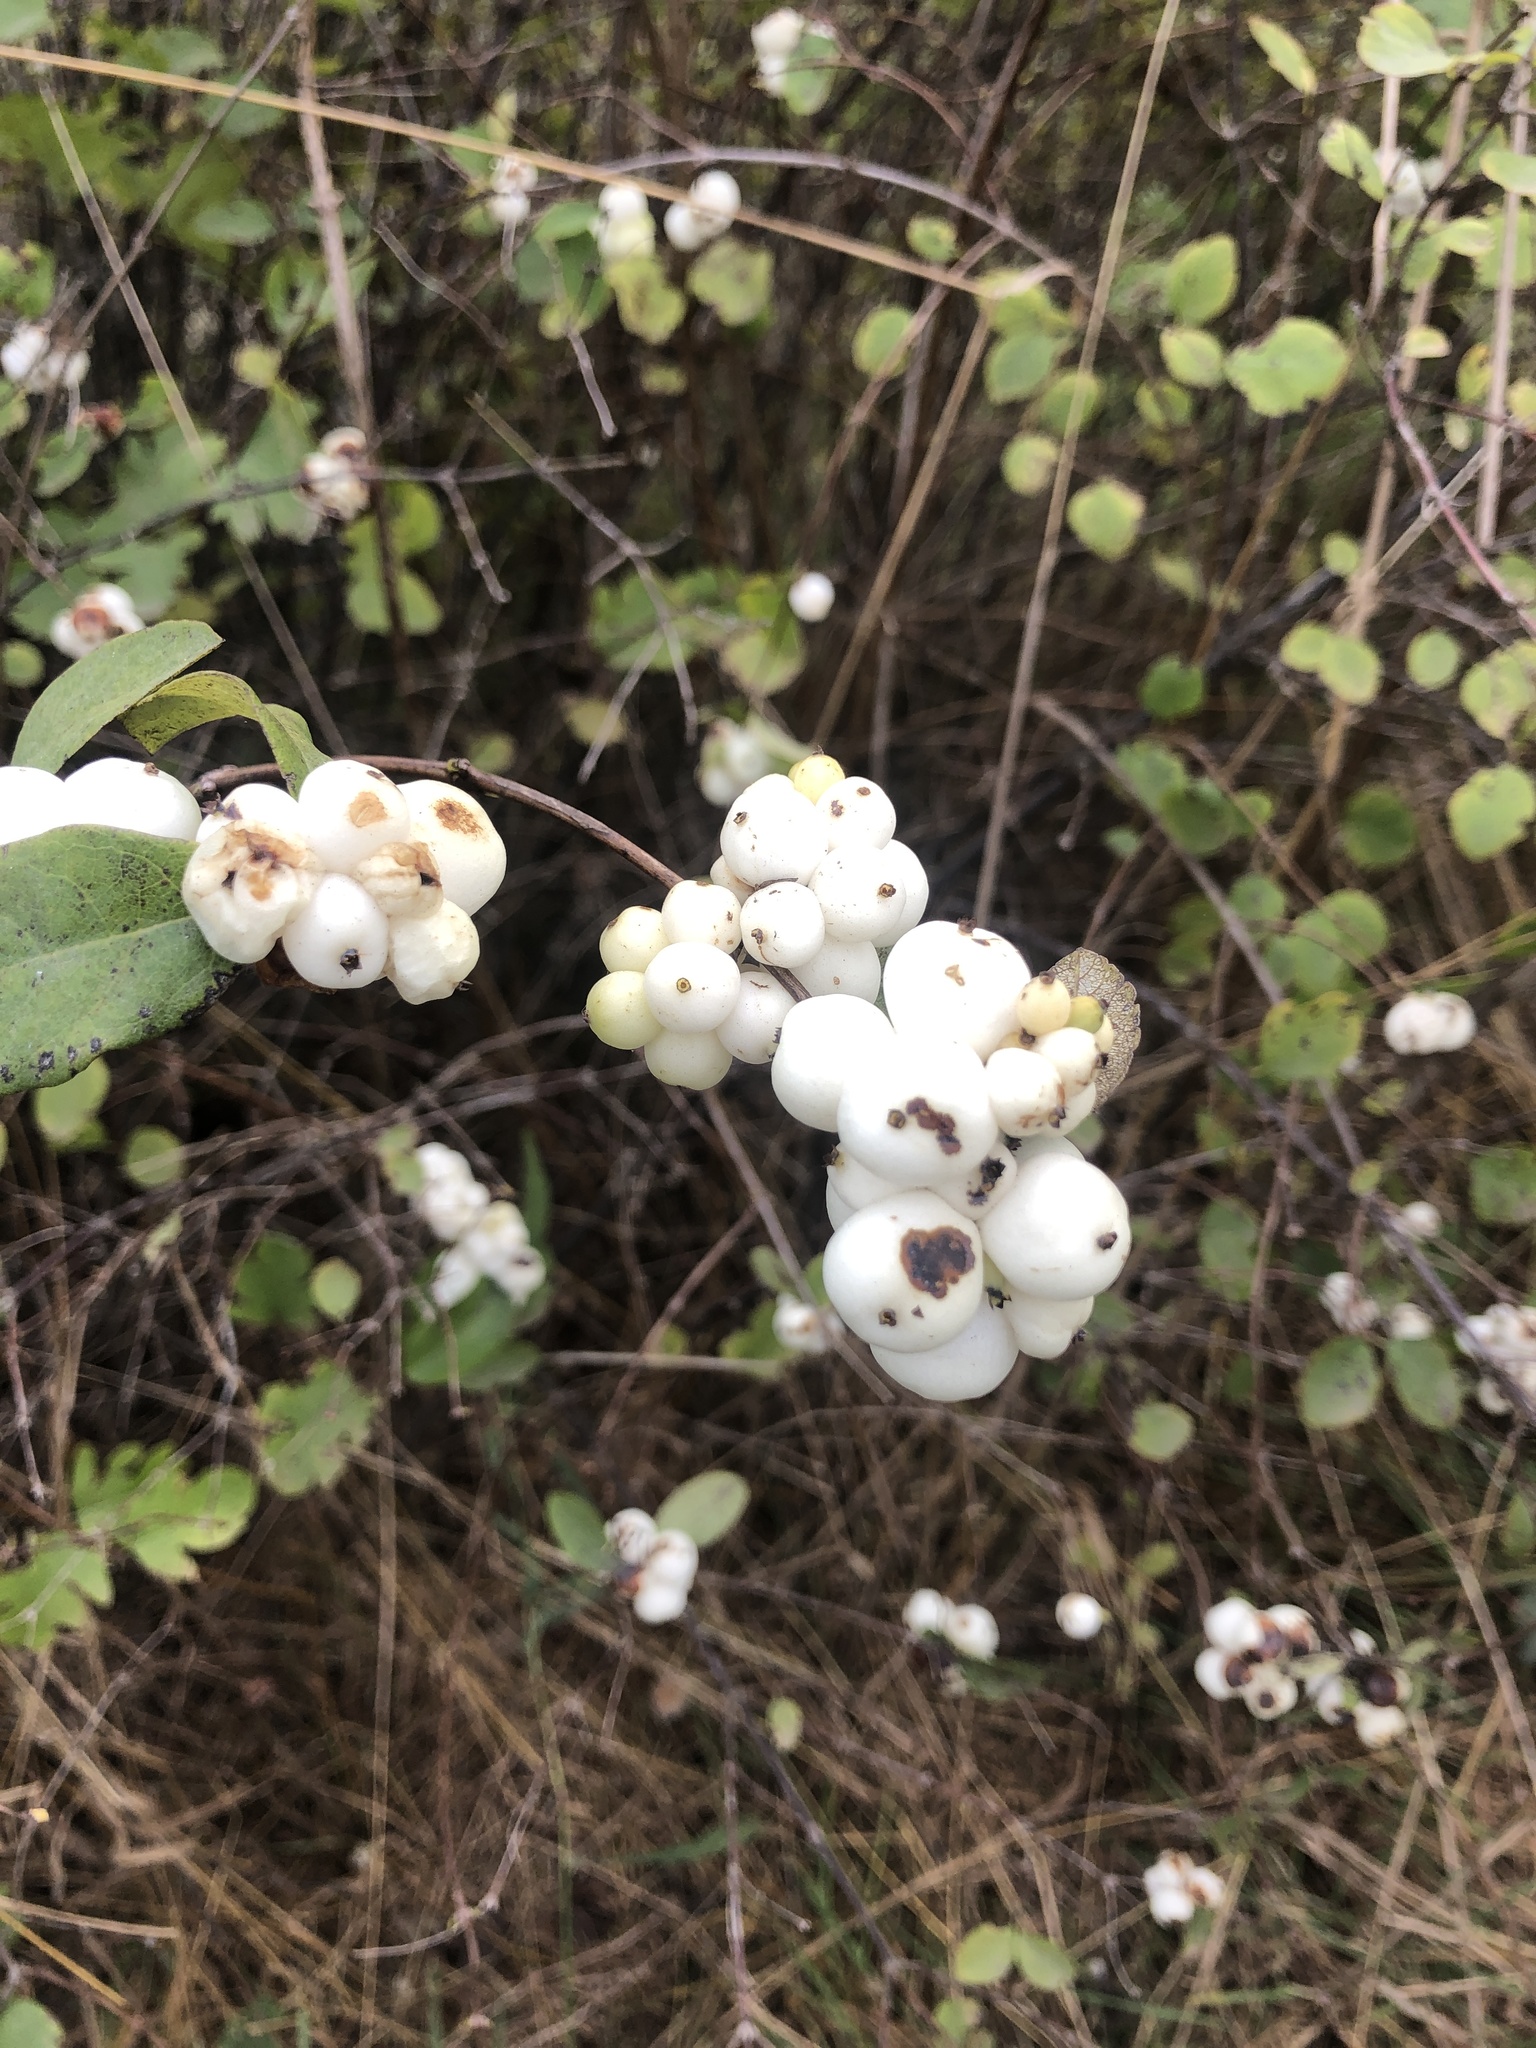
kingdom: Plantae
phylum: Tracheophyta
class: Magnoliopsida
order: Dipsacales
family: Caprifoliaceae
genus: Symphoricarpos
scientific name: Symphoricarpos albus
